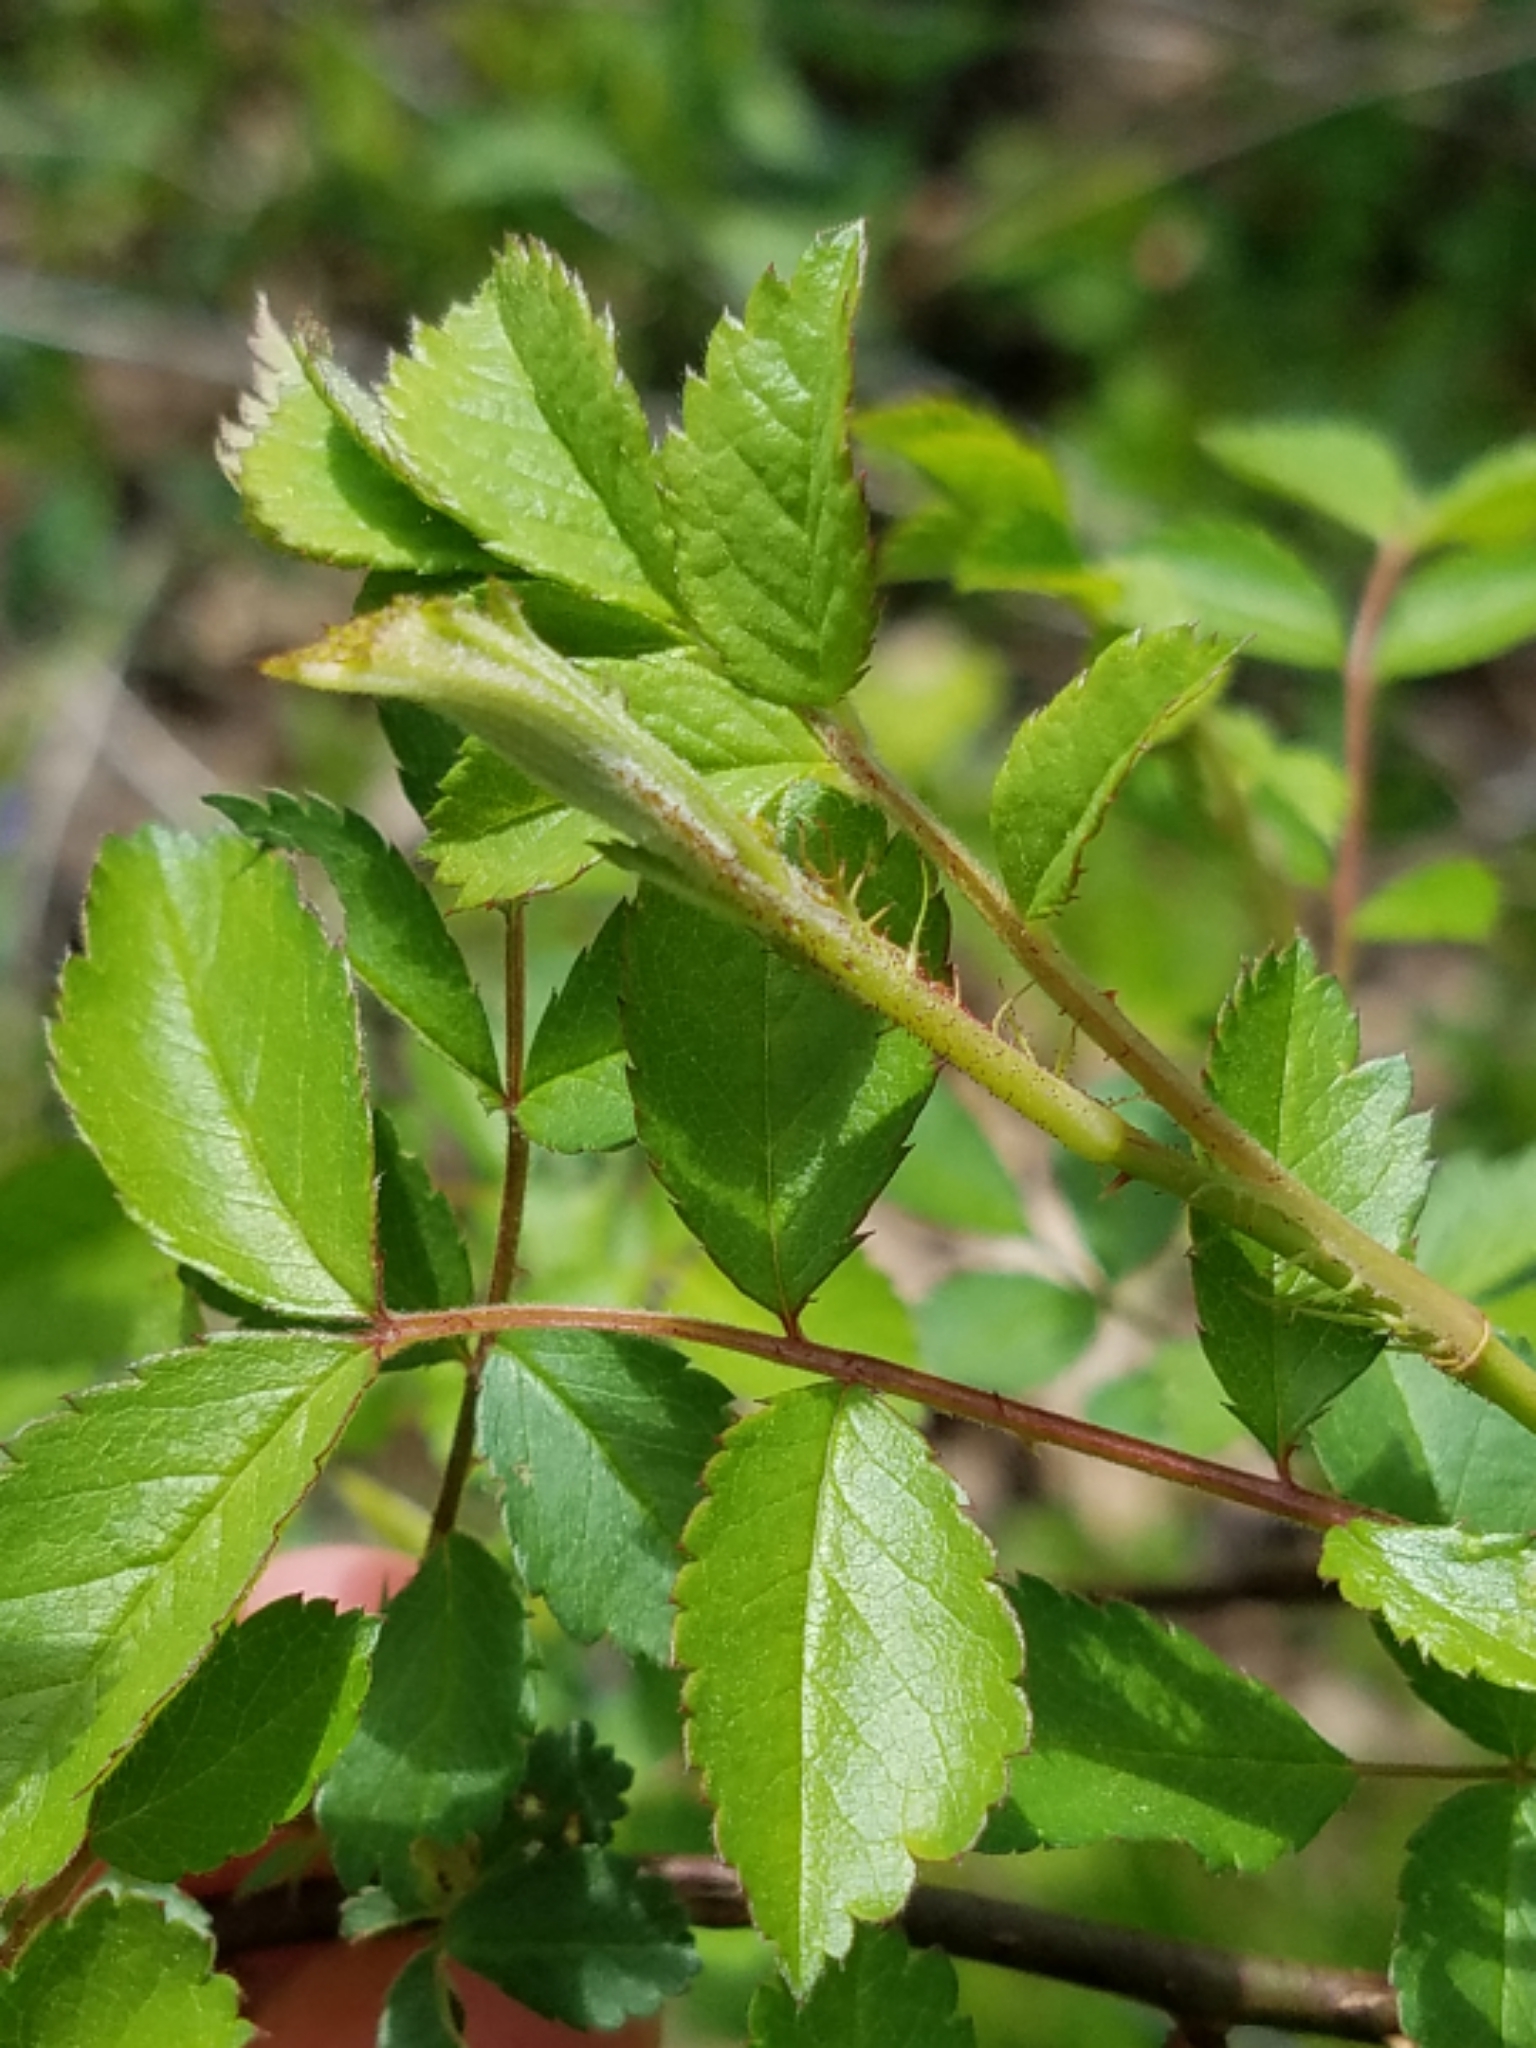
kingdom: Plantae
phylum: Tracheophyta
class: Magnoliopsida
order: Rosales
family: Rosaceae
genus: Rosa
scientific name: Rosa multiflora
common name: Multiflora rose
